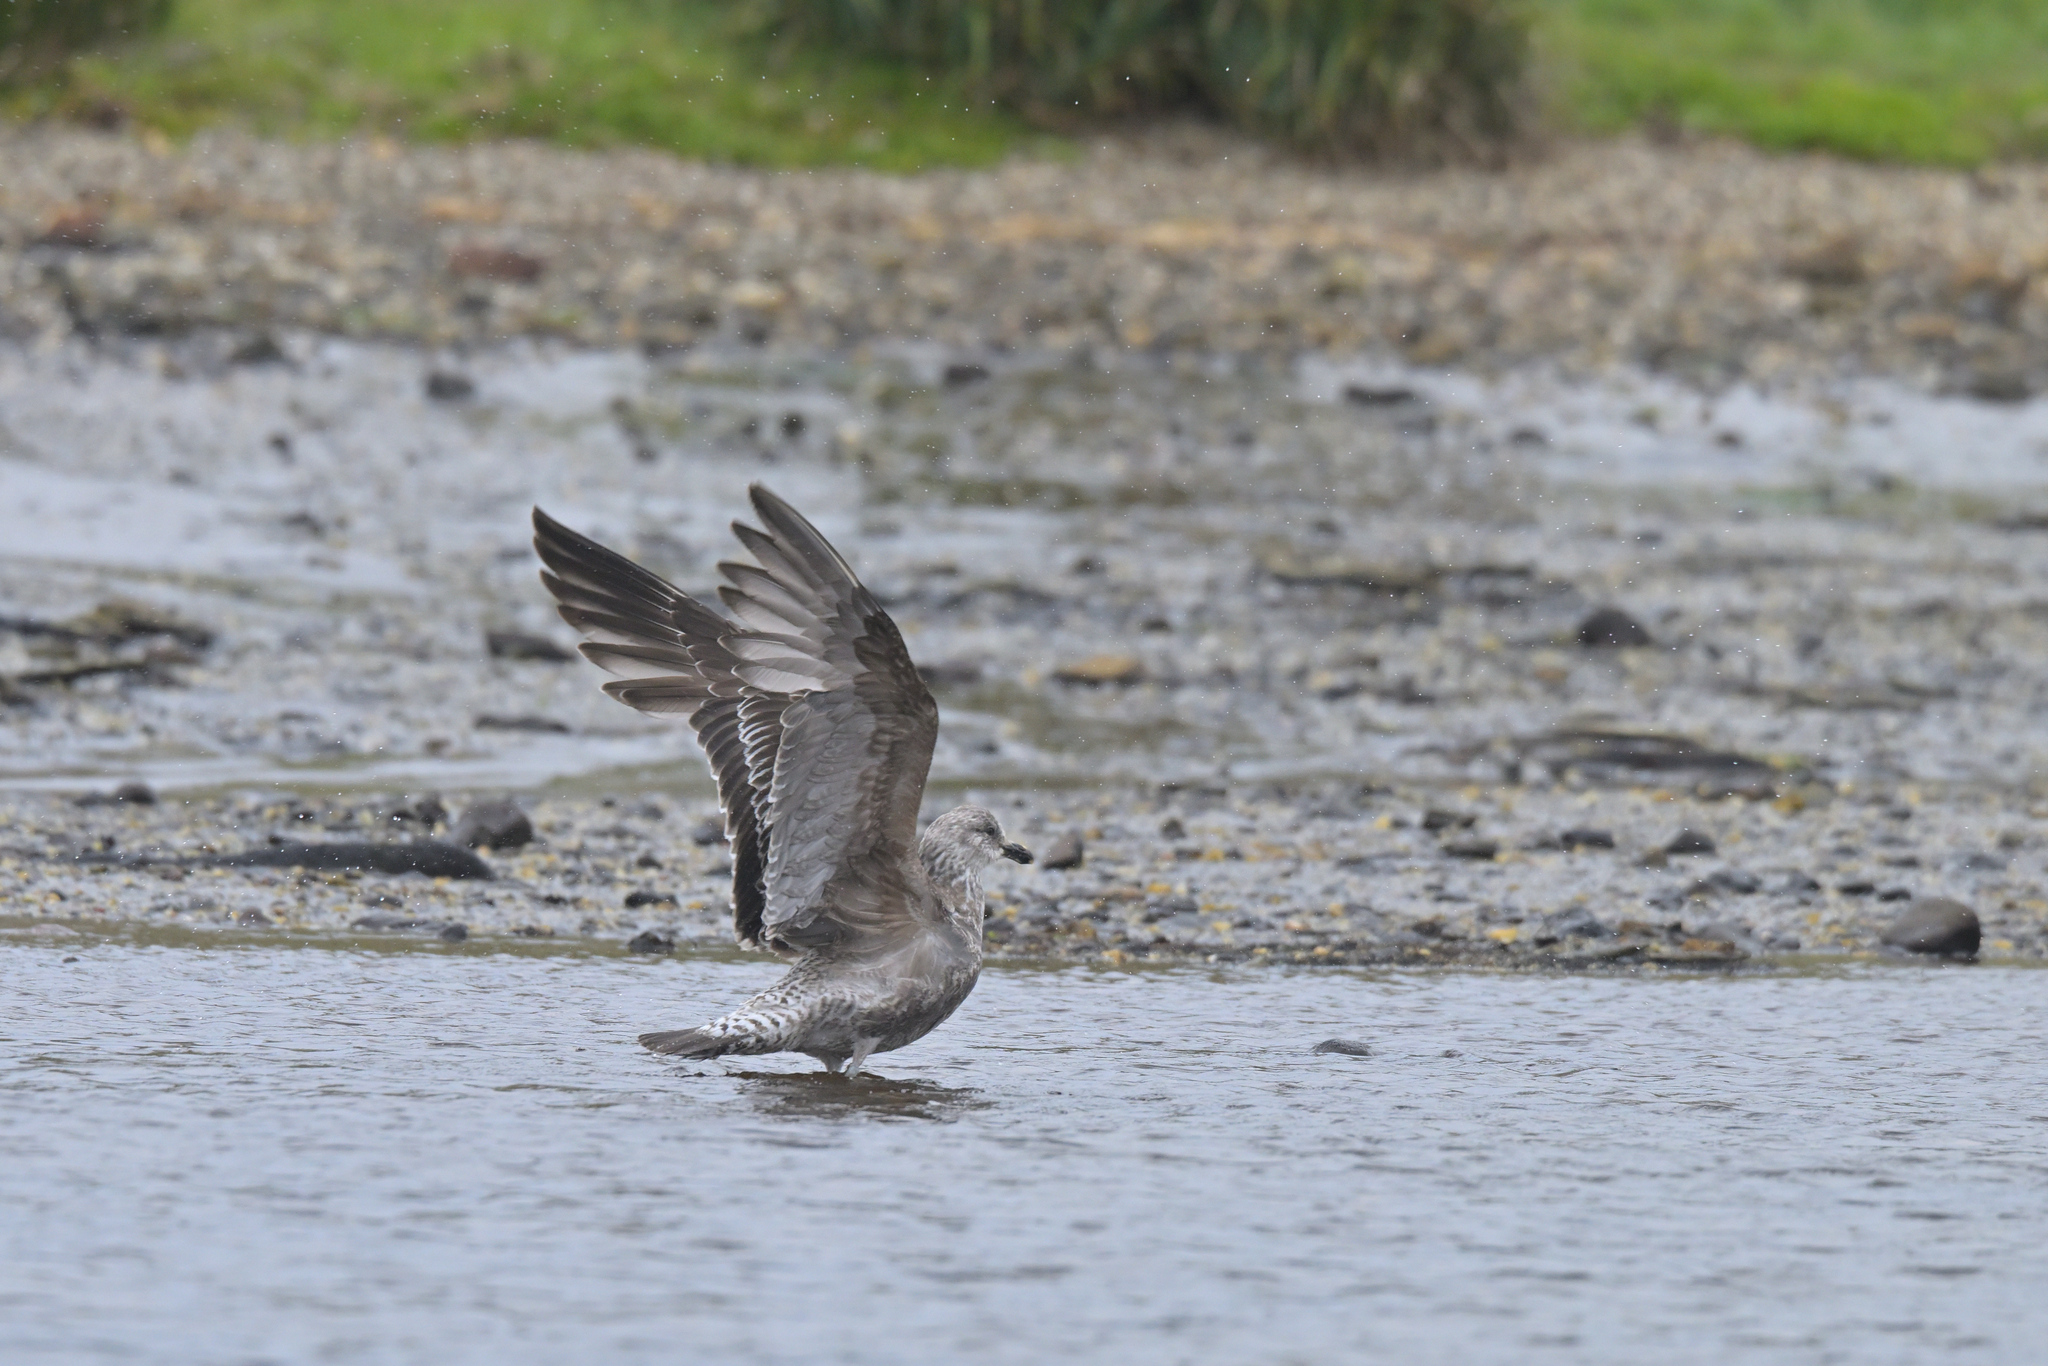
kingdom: Animalia
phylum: Chordata
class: Aves
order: Charadriiformes
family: Laridae
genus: Larus
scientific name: Larus dominicanus
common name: Kelp gull
